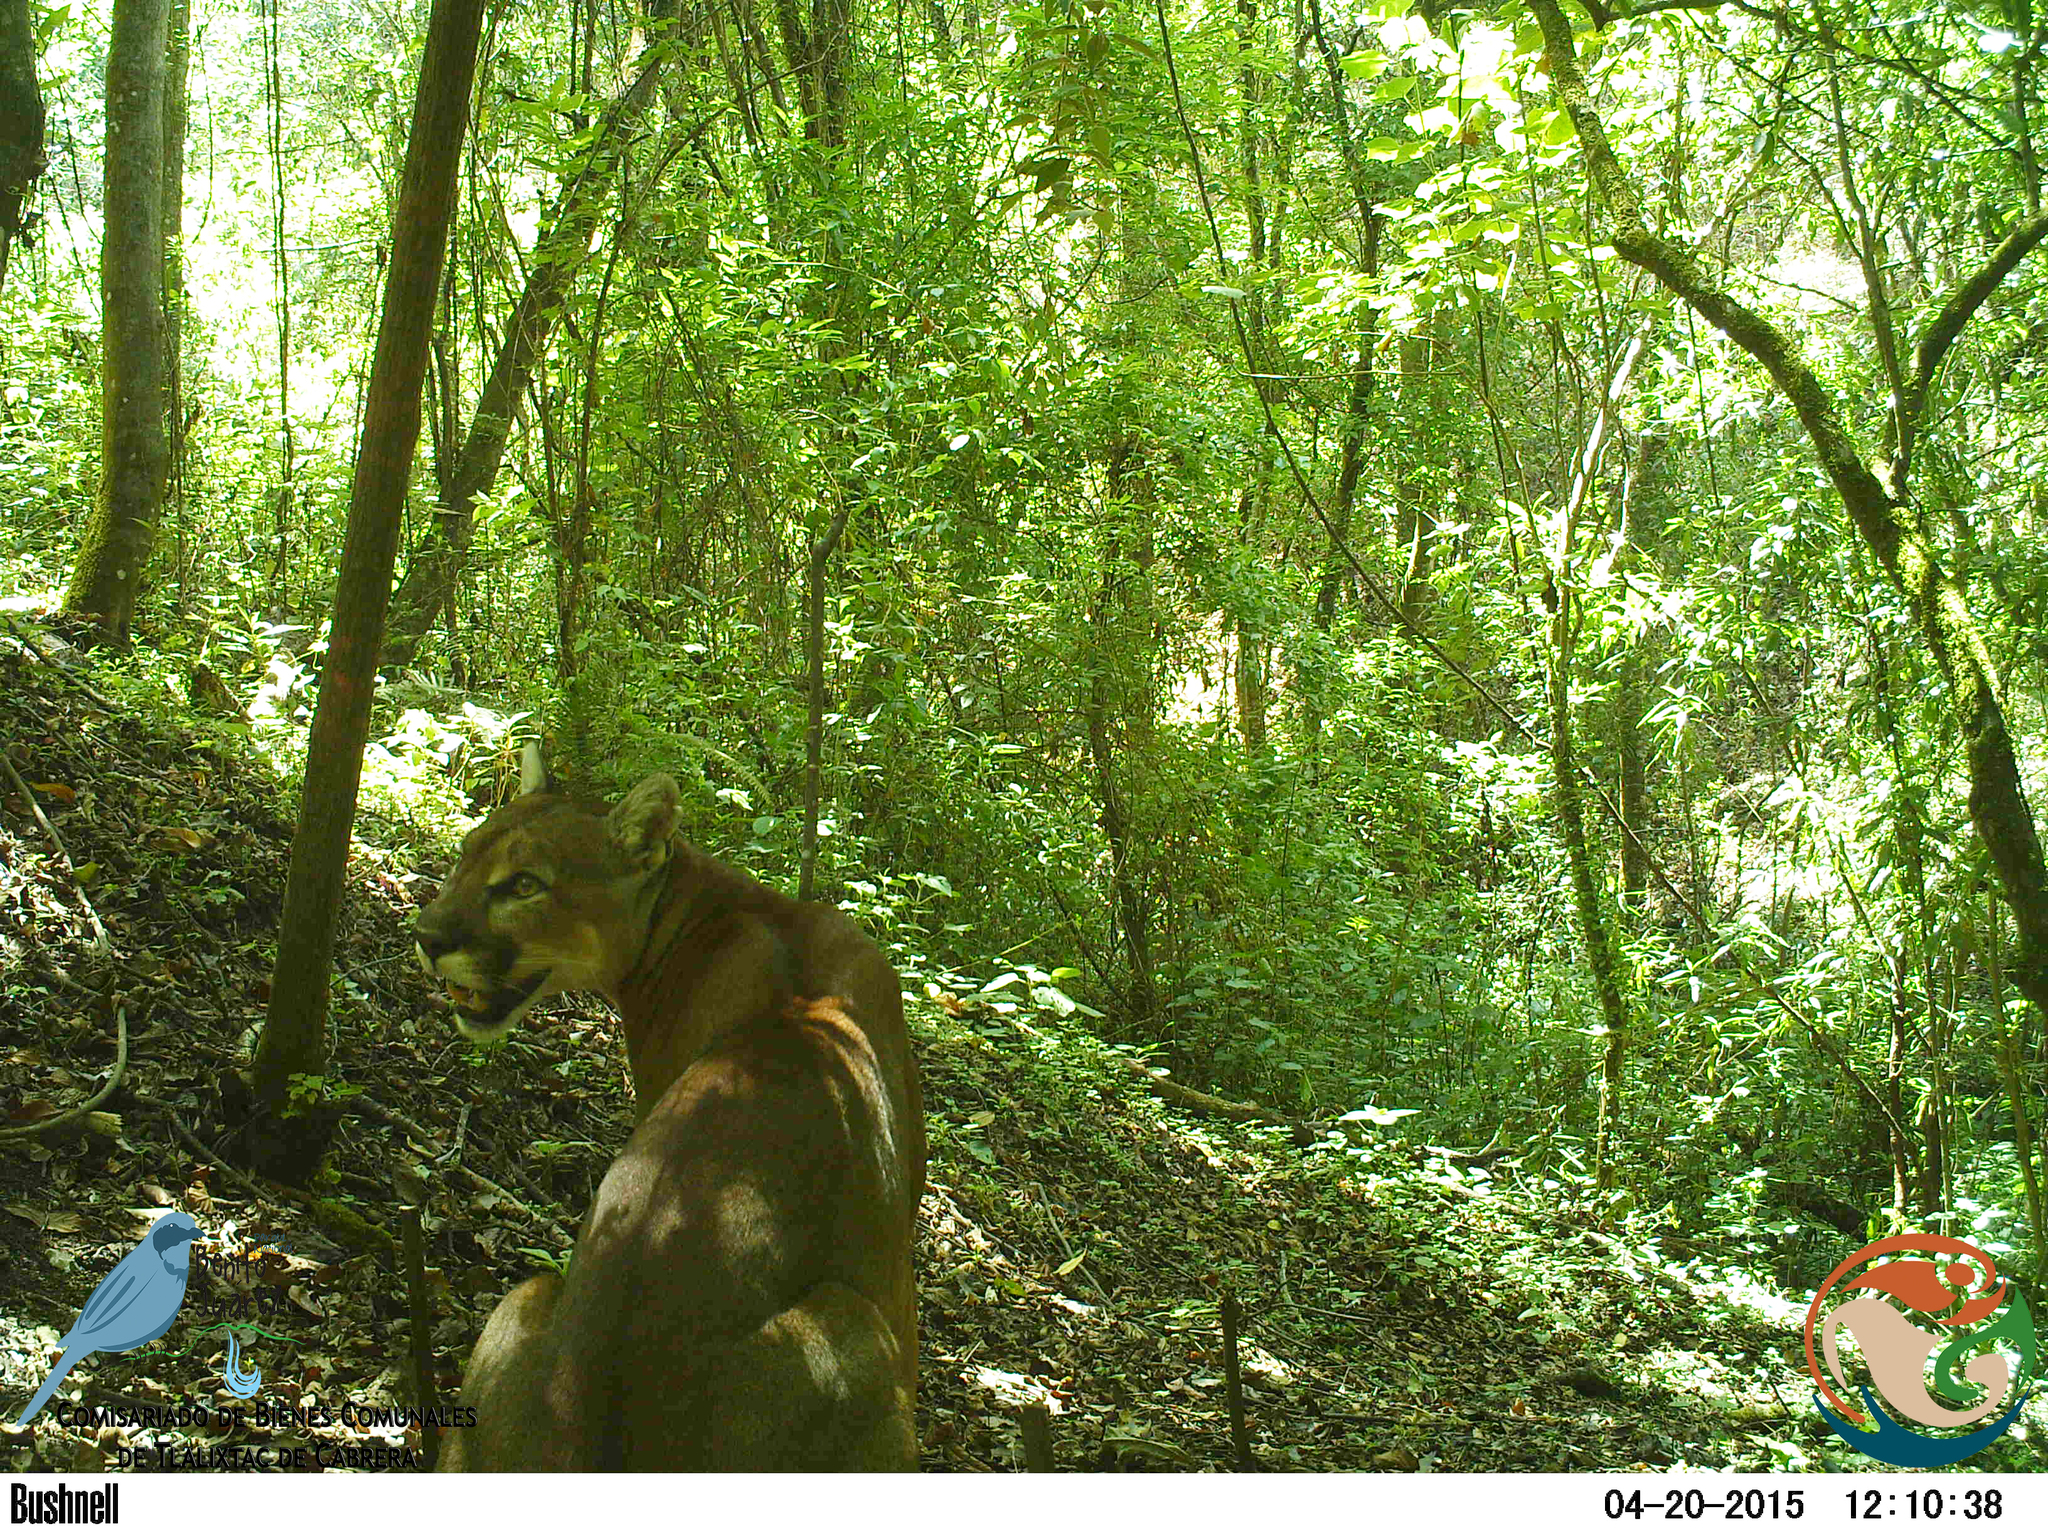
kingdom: Animalia
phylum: Chordata
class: Mammalia
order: Carnivora
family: Felidae
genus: Puma
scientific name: Puma concolor
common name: Puma
